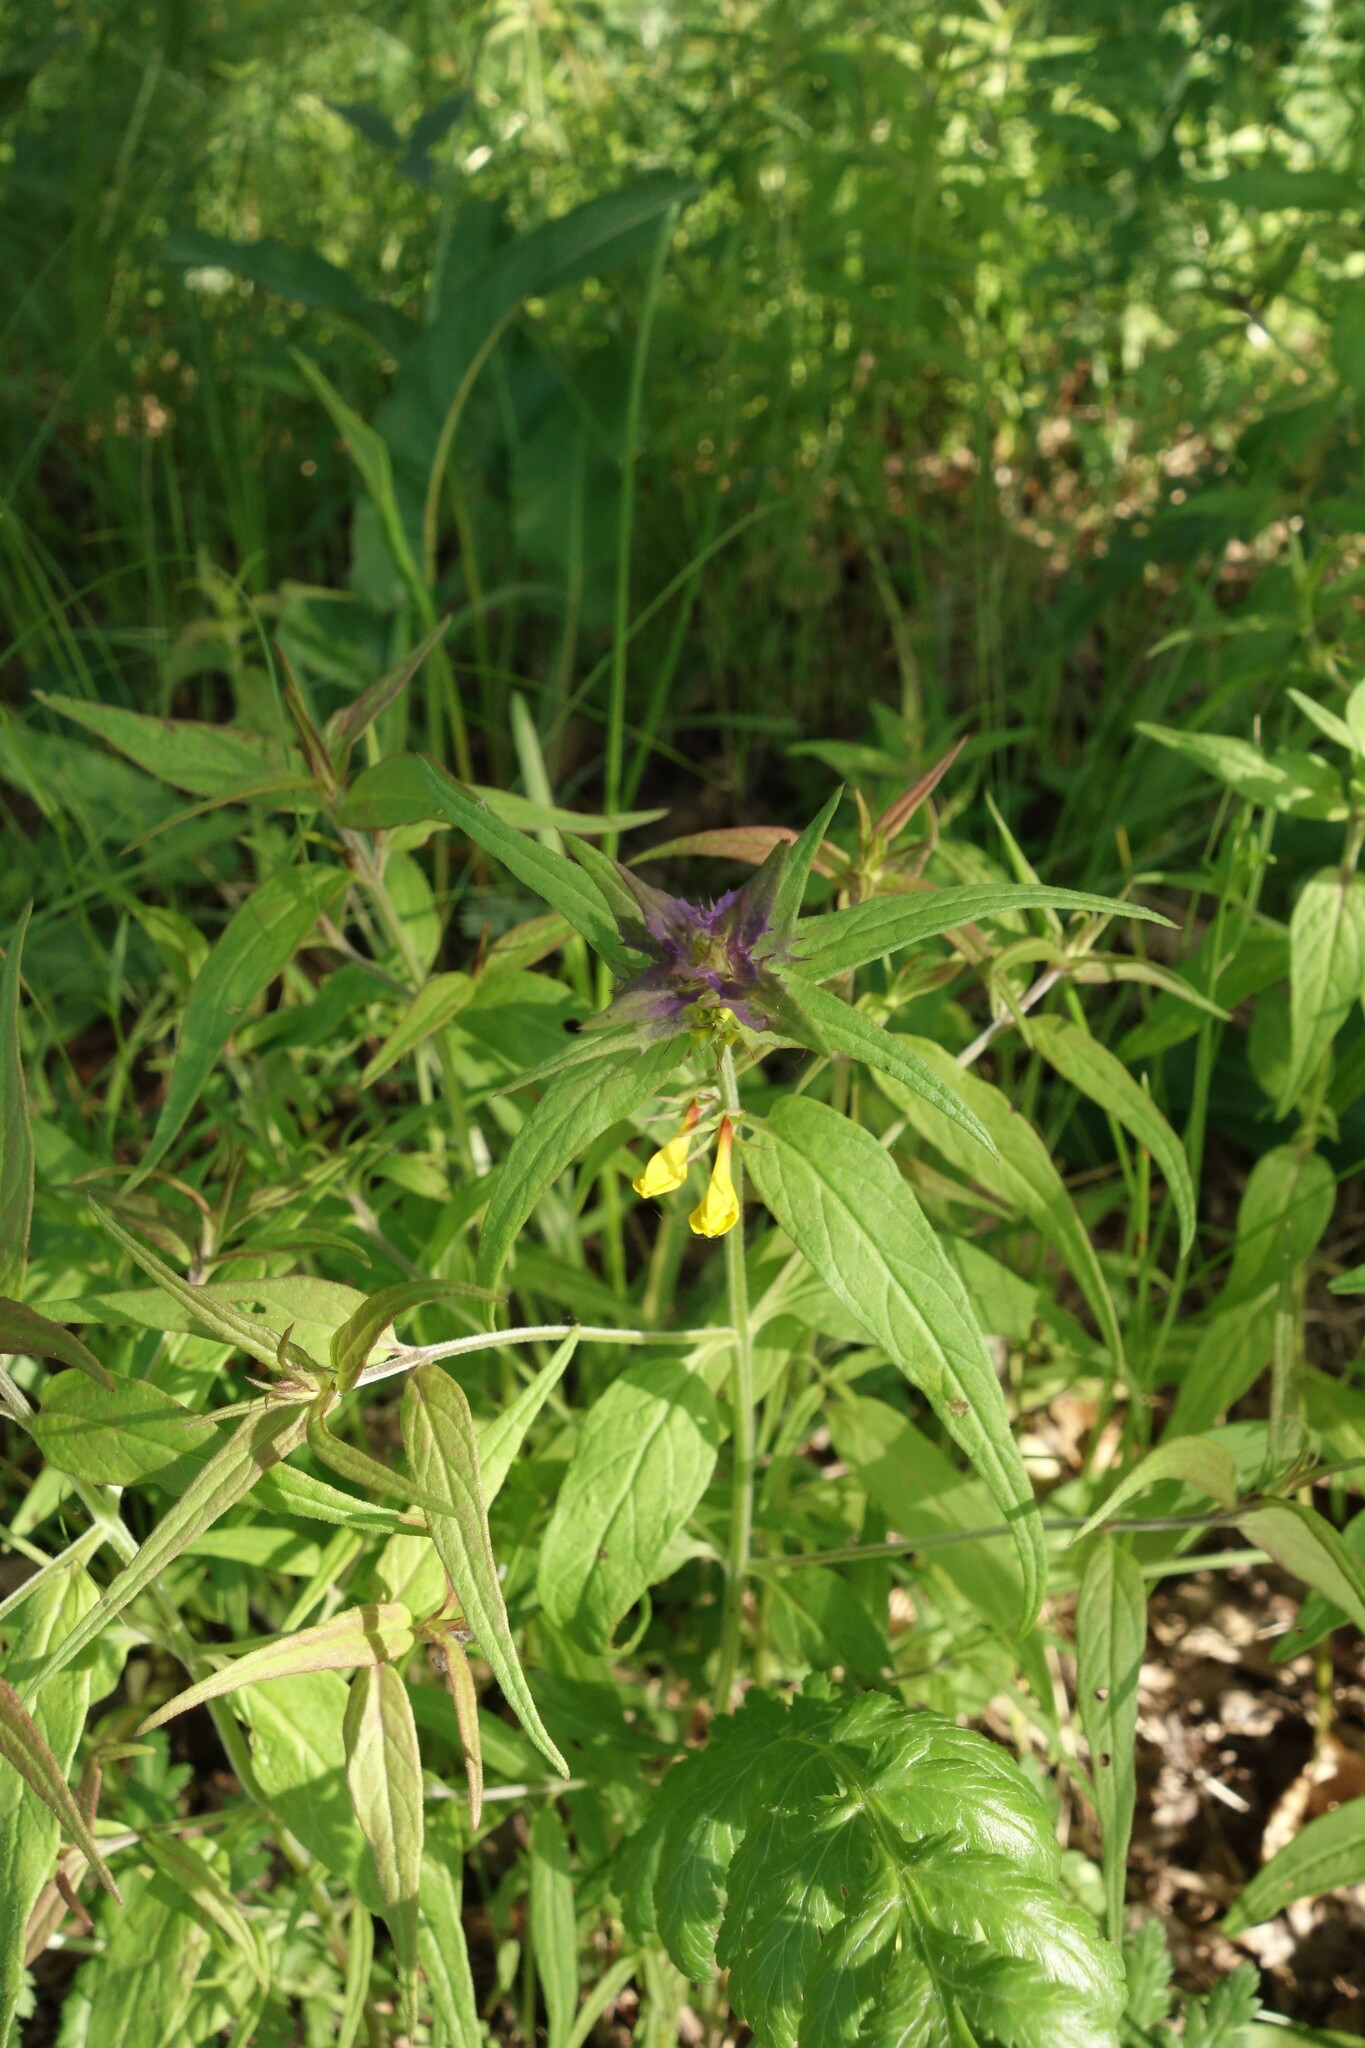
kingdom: Plantae
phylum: Tracheophyta
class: Magnoliopsida
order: Lamiales
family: Orobanchaceae
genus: Melampyrum
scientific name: Melampyrum nemorosum
